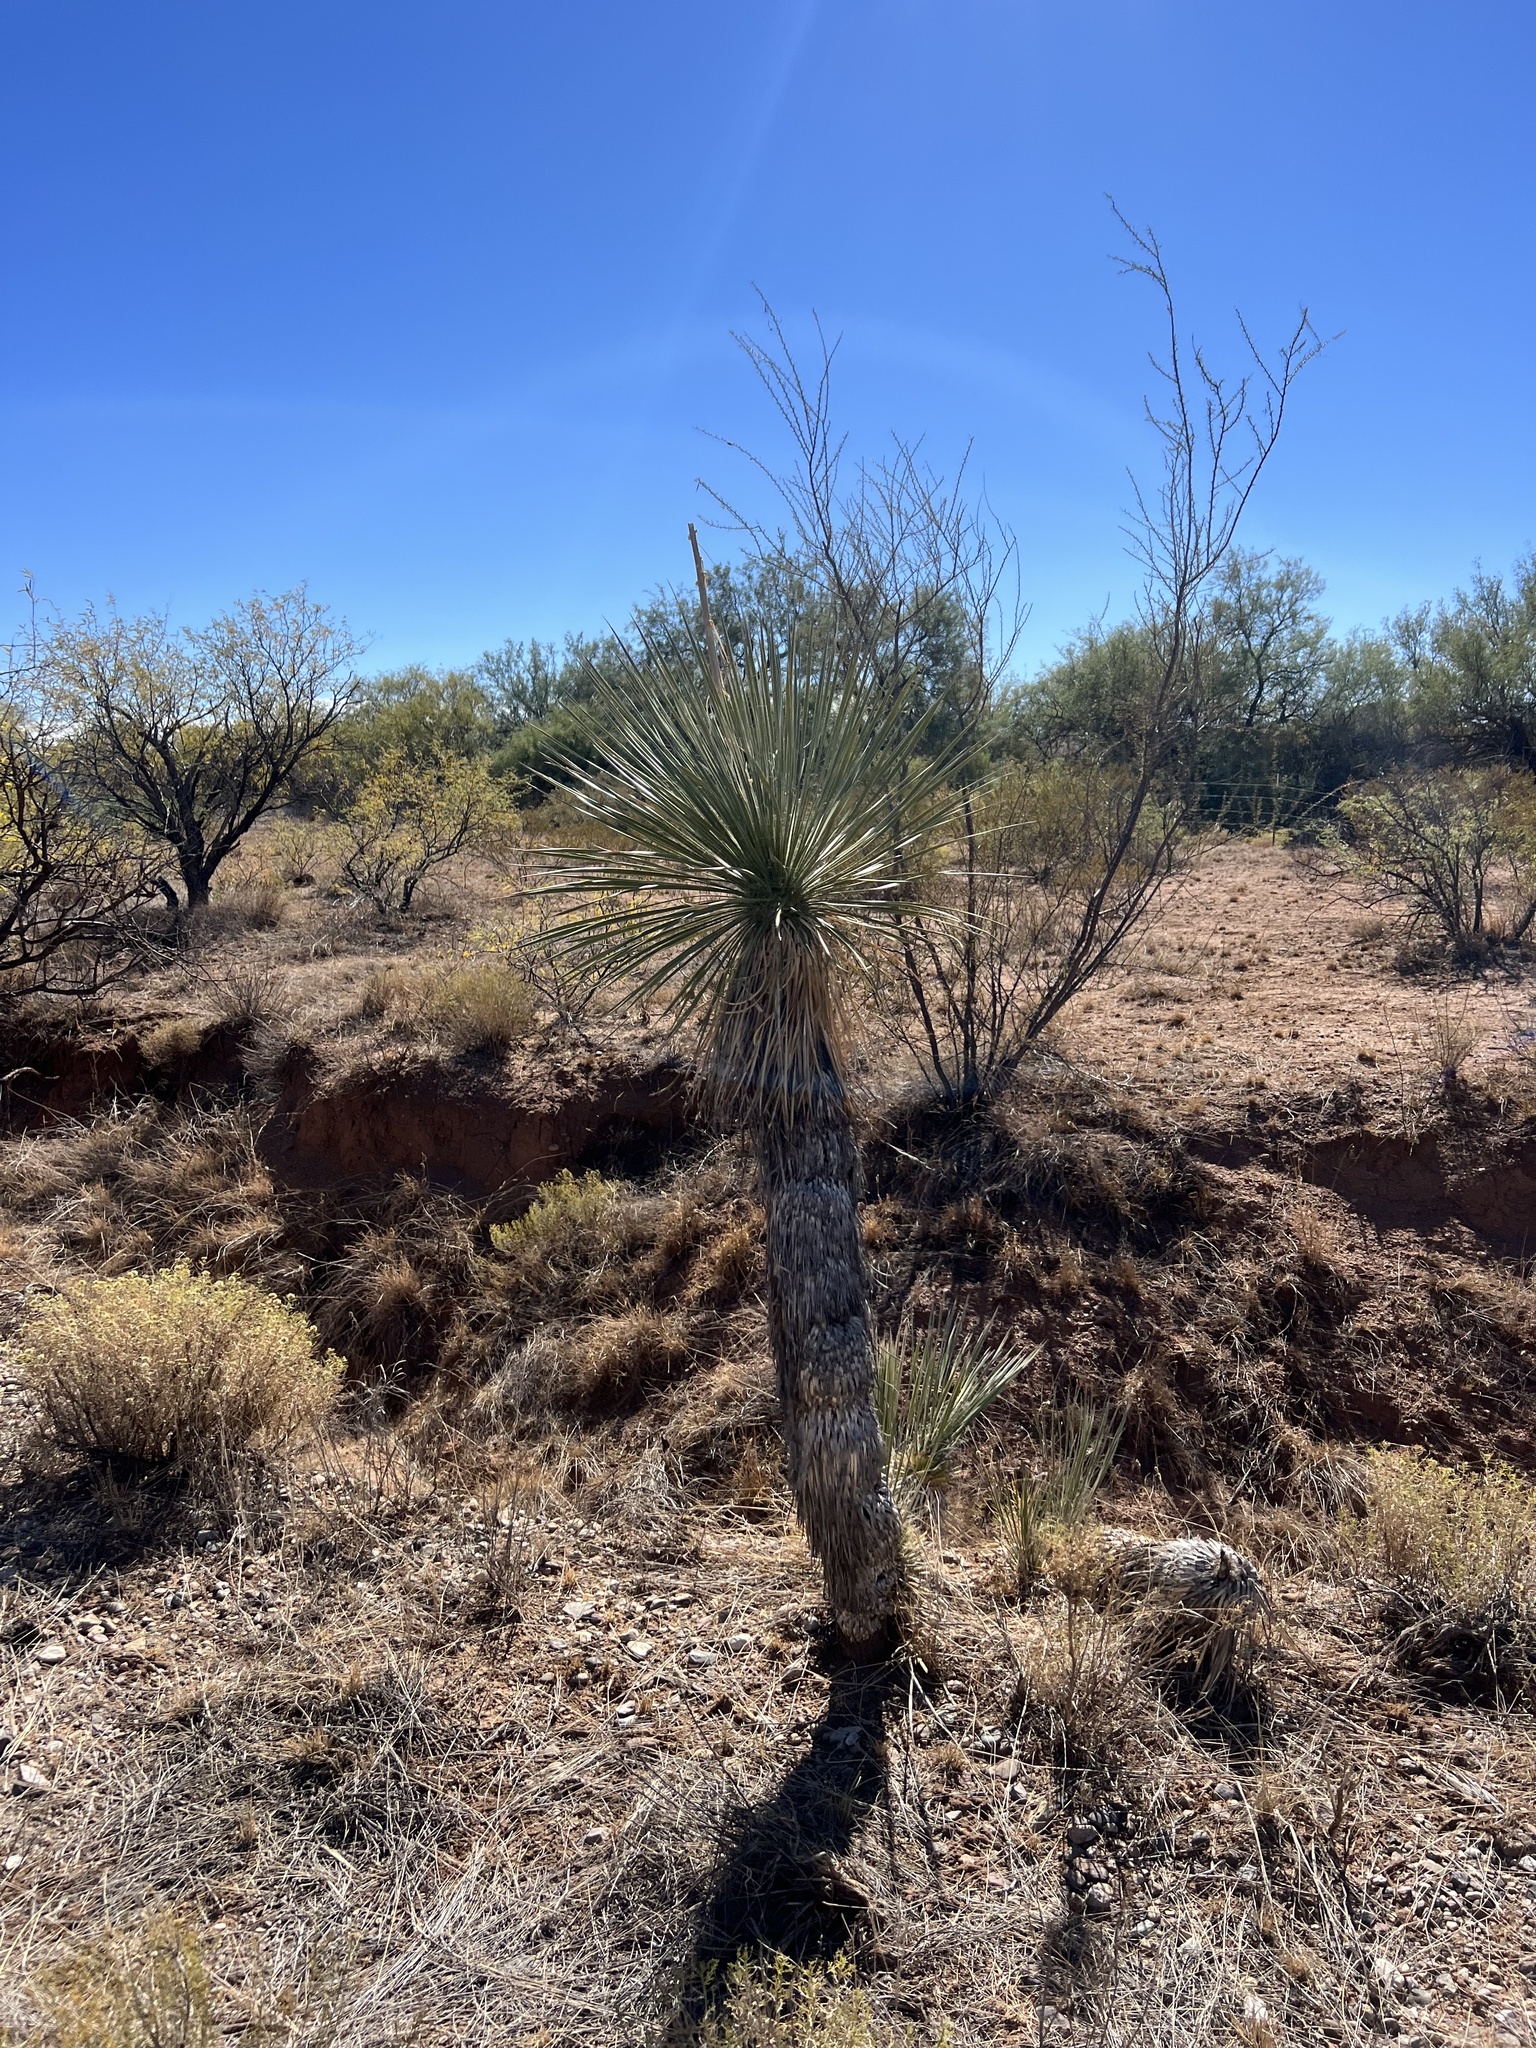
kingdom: Plantae
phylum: Tracheophyta
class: Liliopsida
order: Asparagales
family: Asparagaceae
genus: Yucca
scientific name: Yucca elata
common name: Palmella
